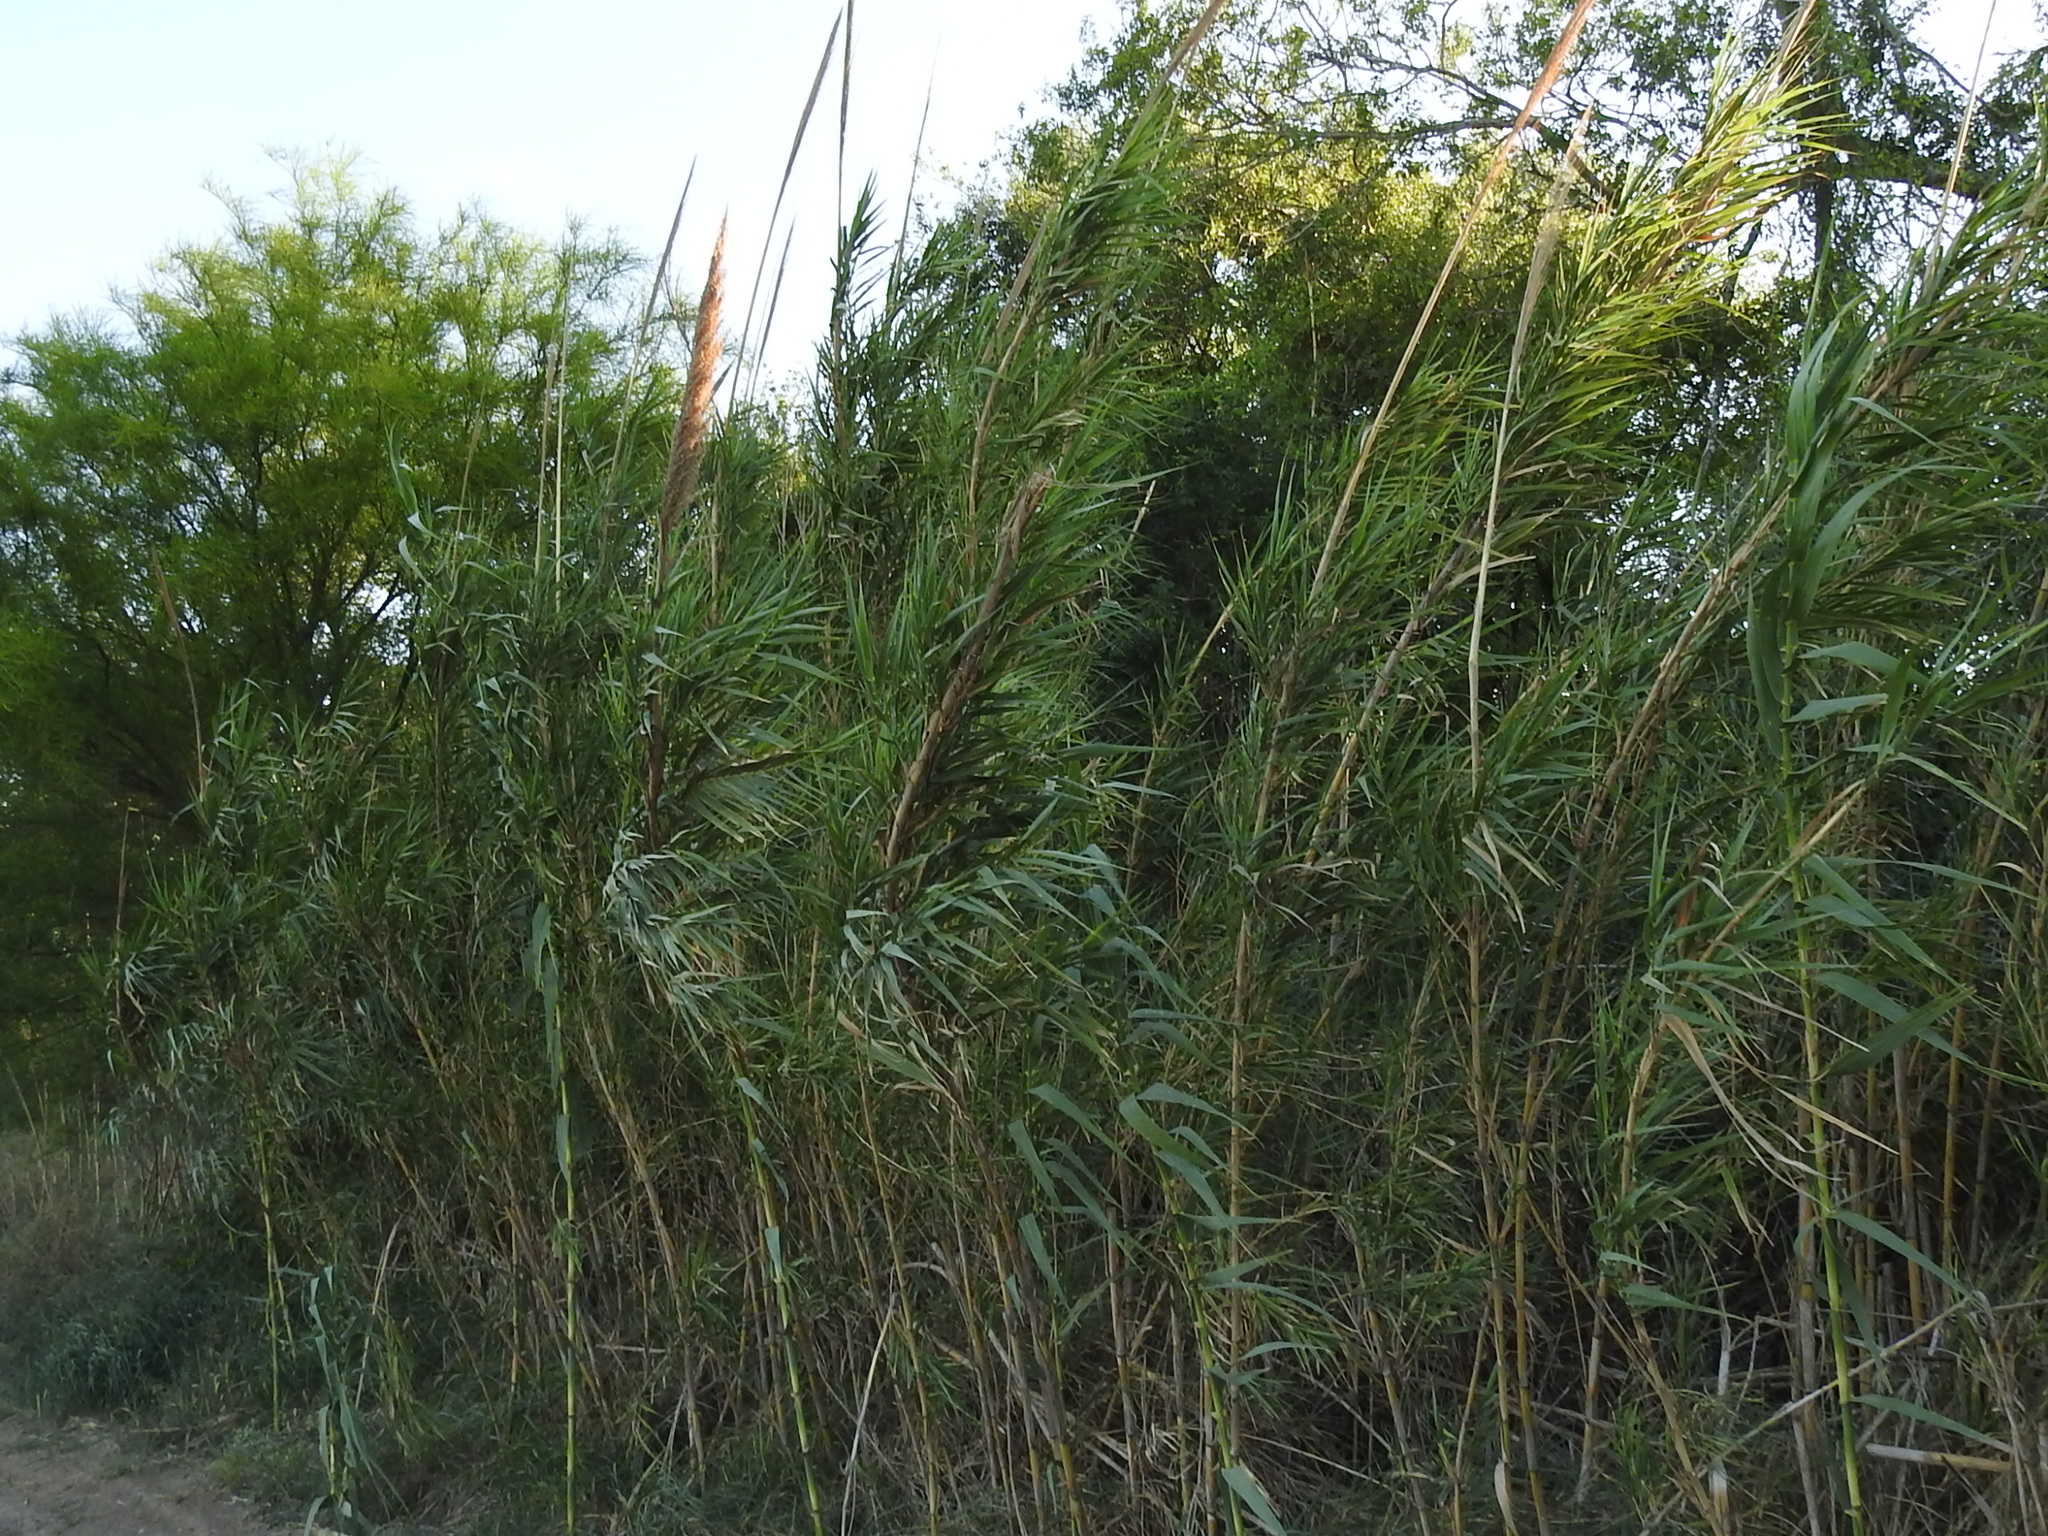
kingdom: Plantae
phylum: Tracheophyta
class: Liliopsida
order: Poales
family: Poaceae
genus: Arundo
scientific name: Arundo donax
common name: Giant reed
